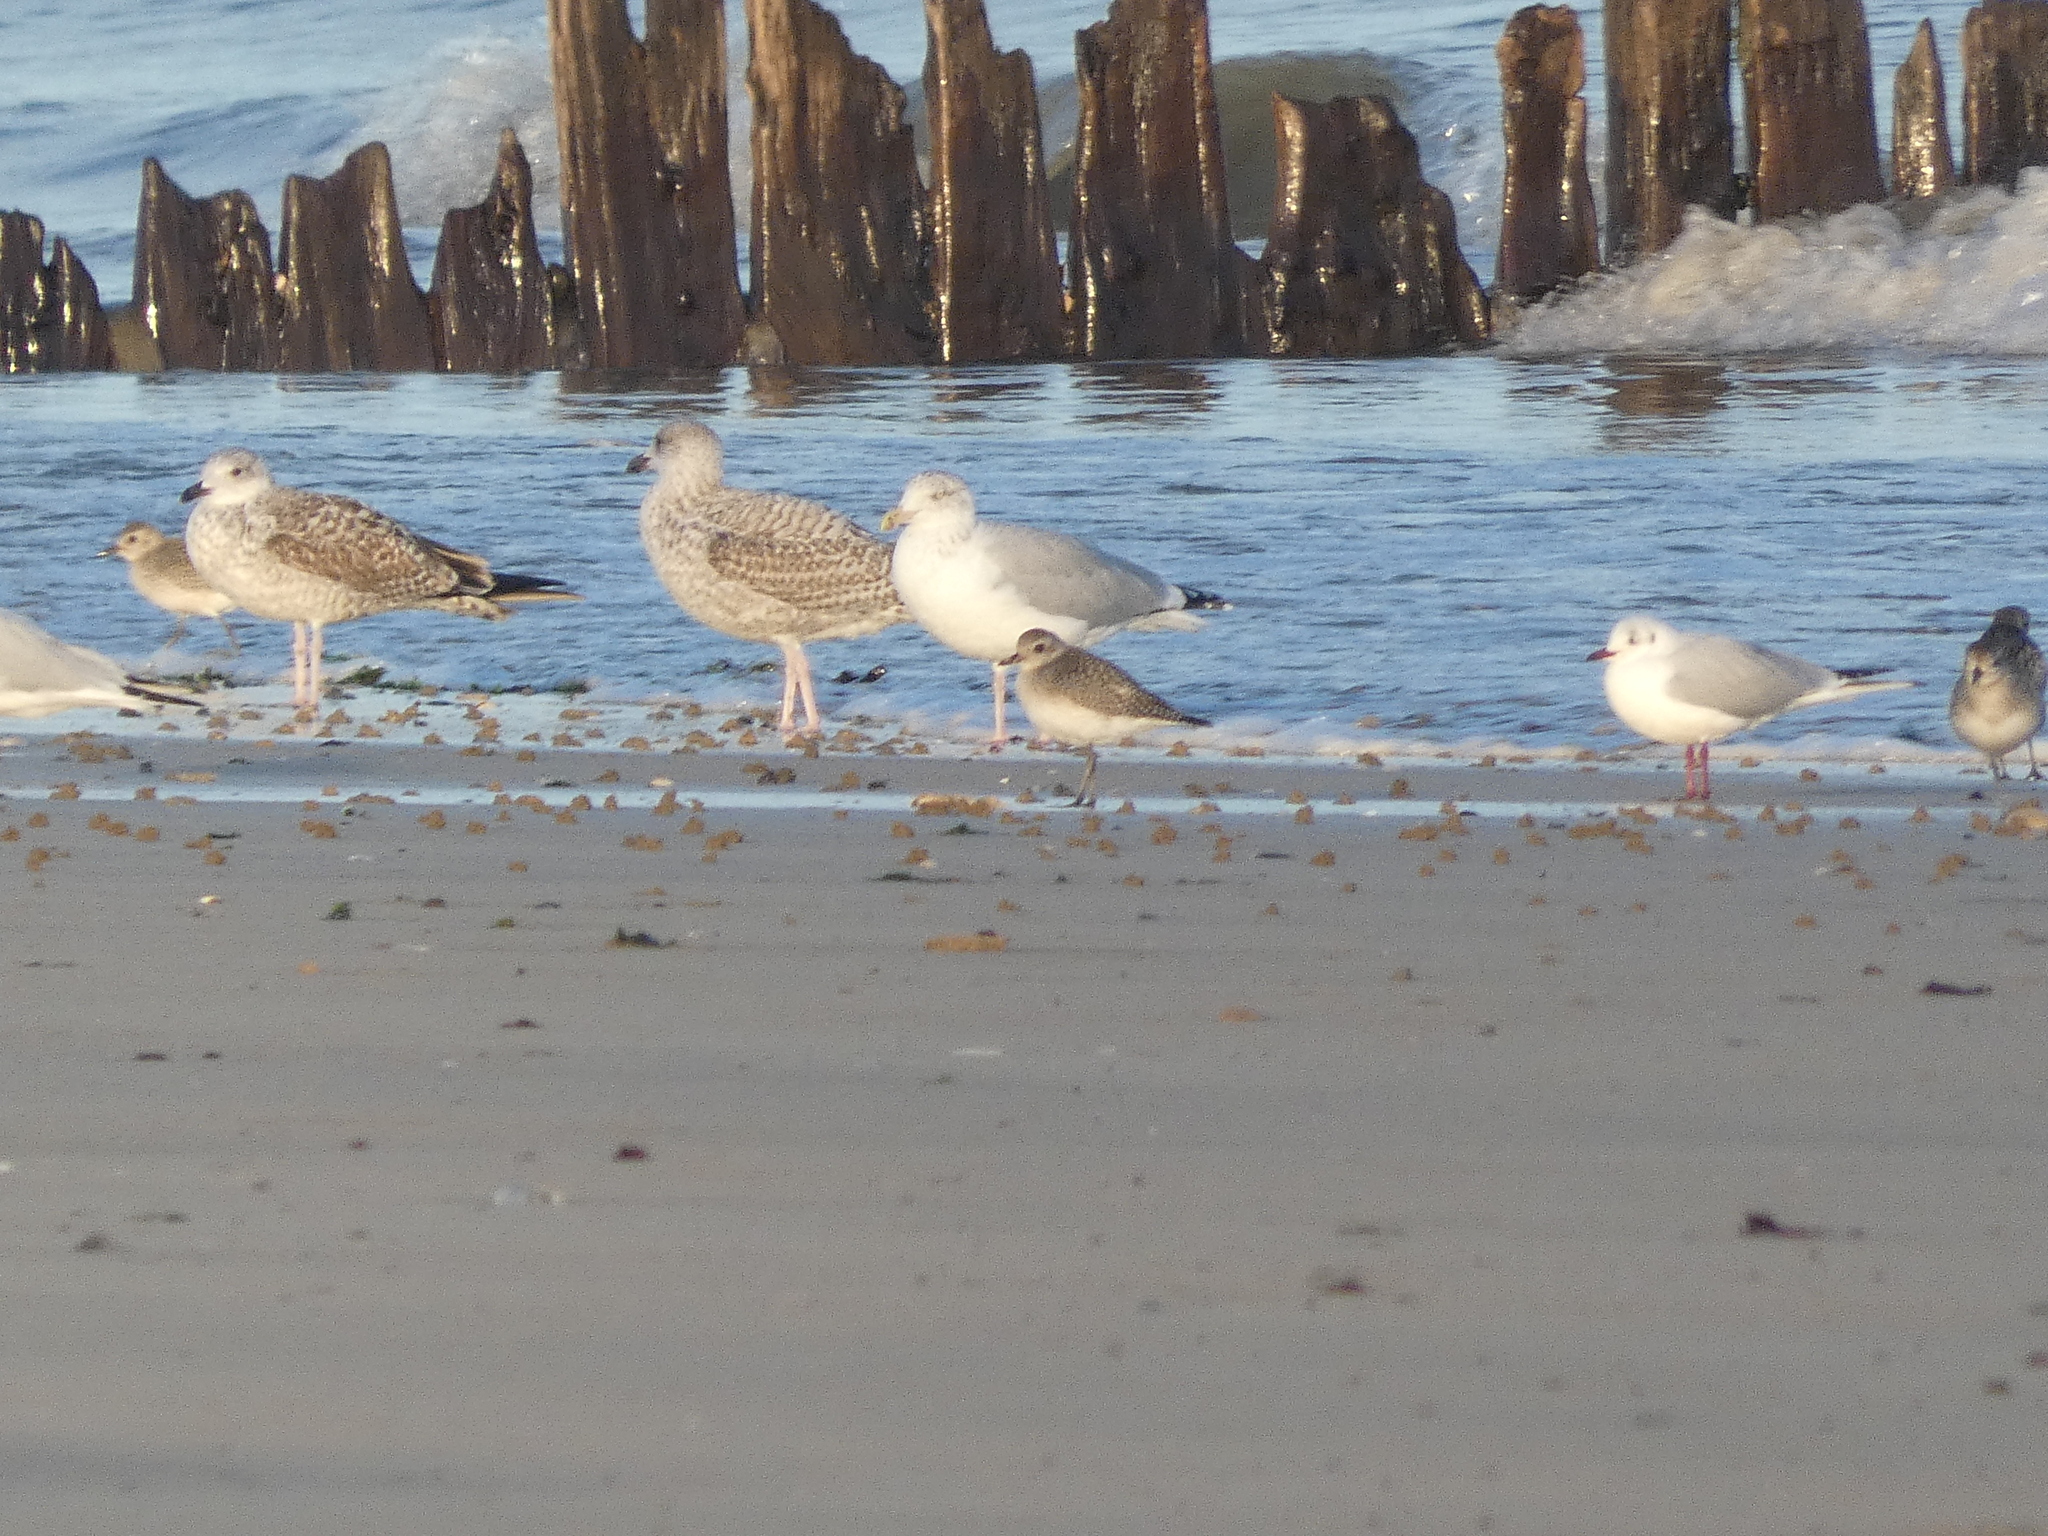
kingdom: Animalia
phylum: Chordata
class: Aves
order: Charadriiformes
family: Laridae
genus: Larus
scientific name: Larus argentatus
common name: Herring gull
